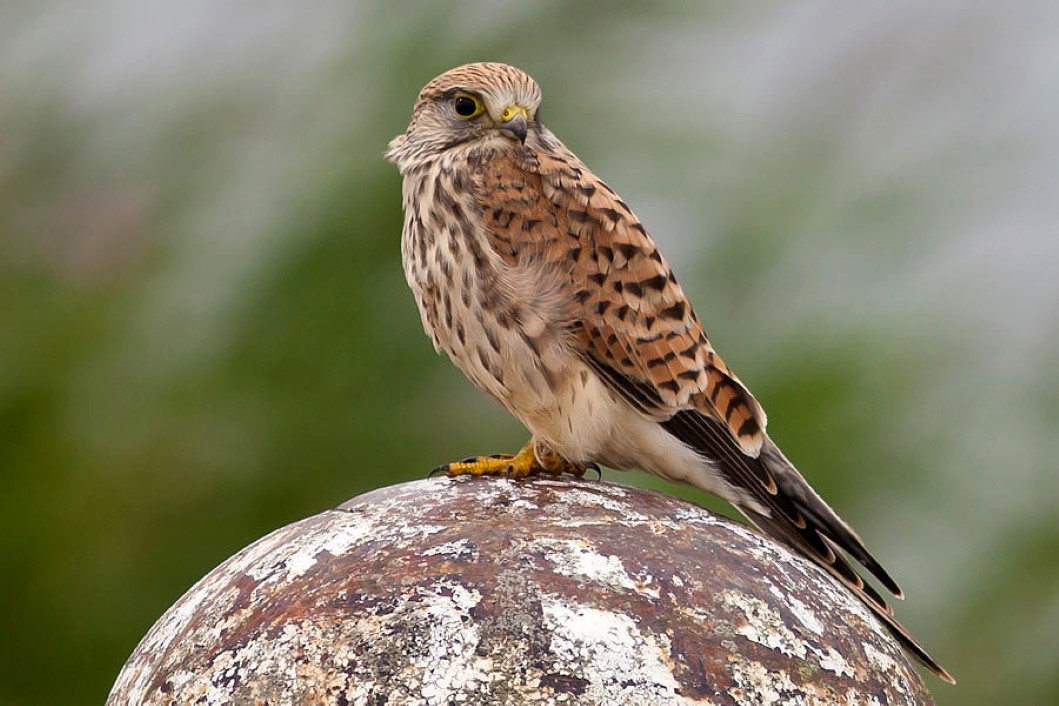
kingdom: Animalia
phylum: Chordata
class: Aves
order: Falconiformes
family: Falconidae
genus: Falco
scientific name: Falco tinnunculus
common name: Common kestrel
